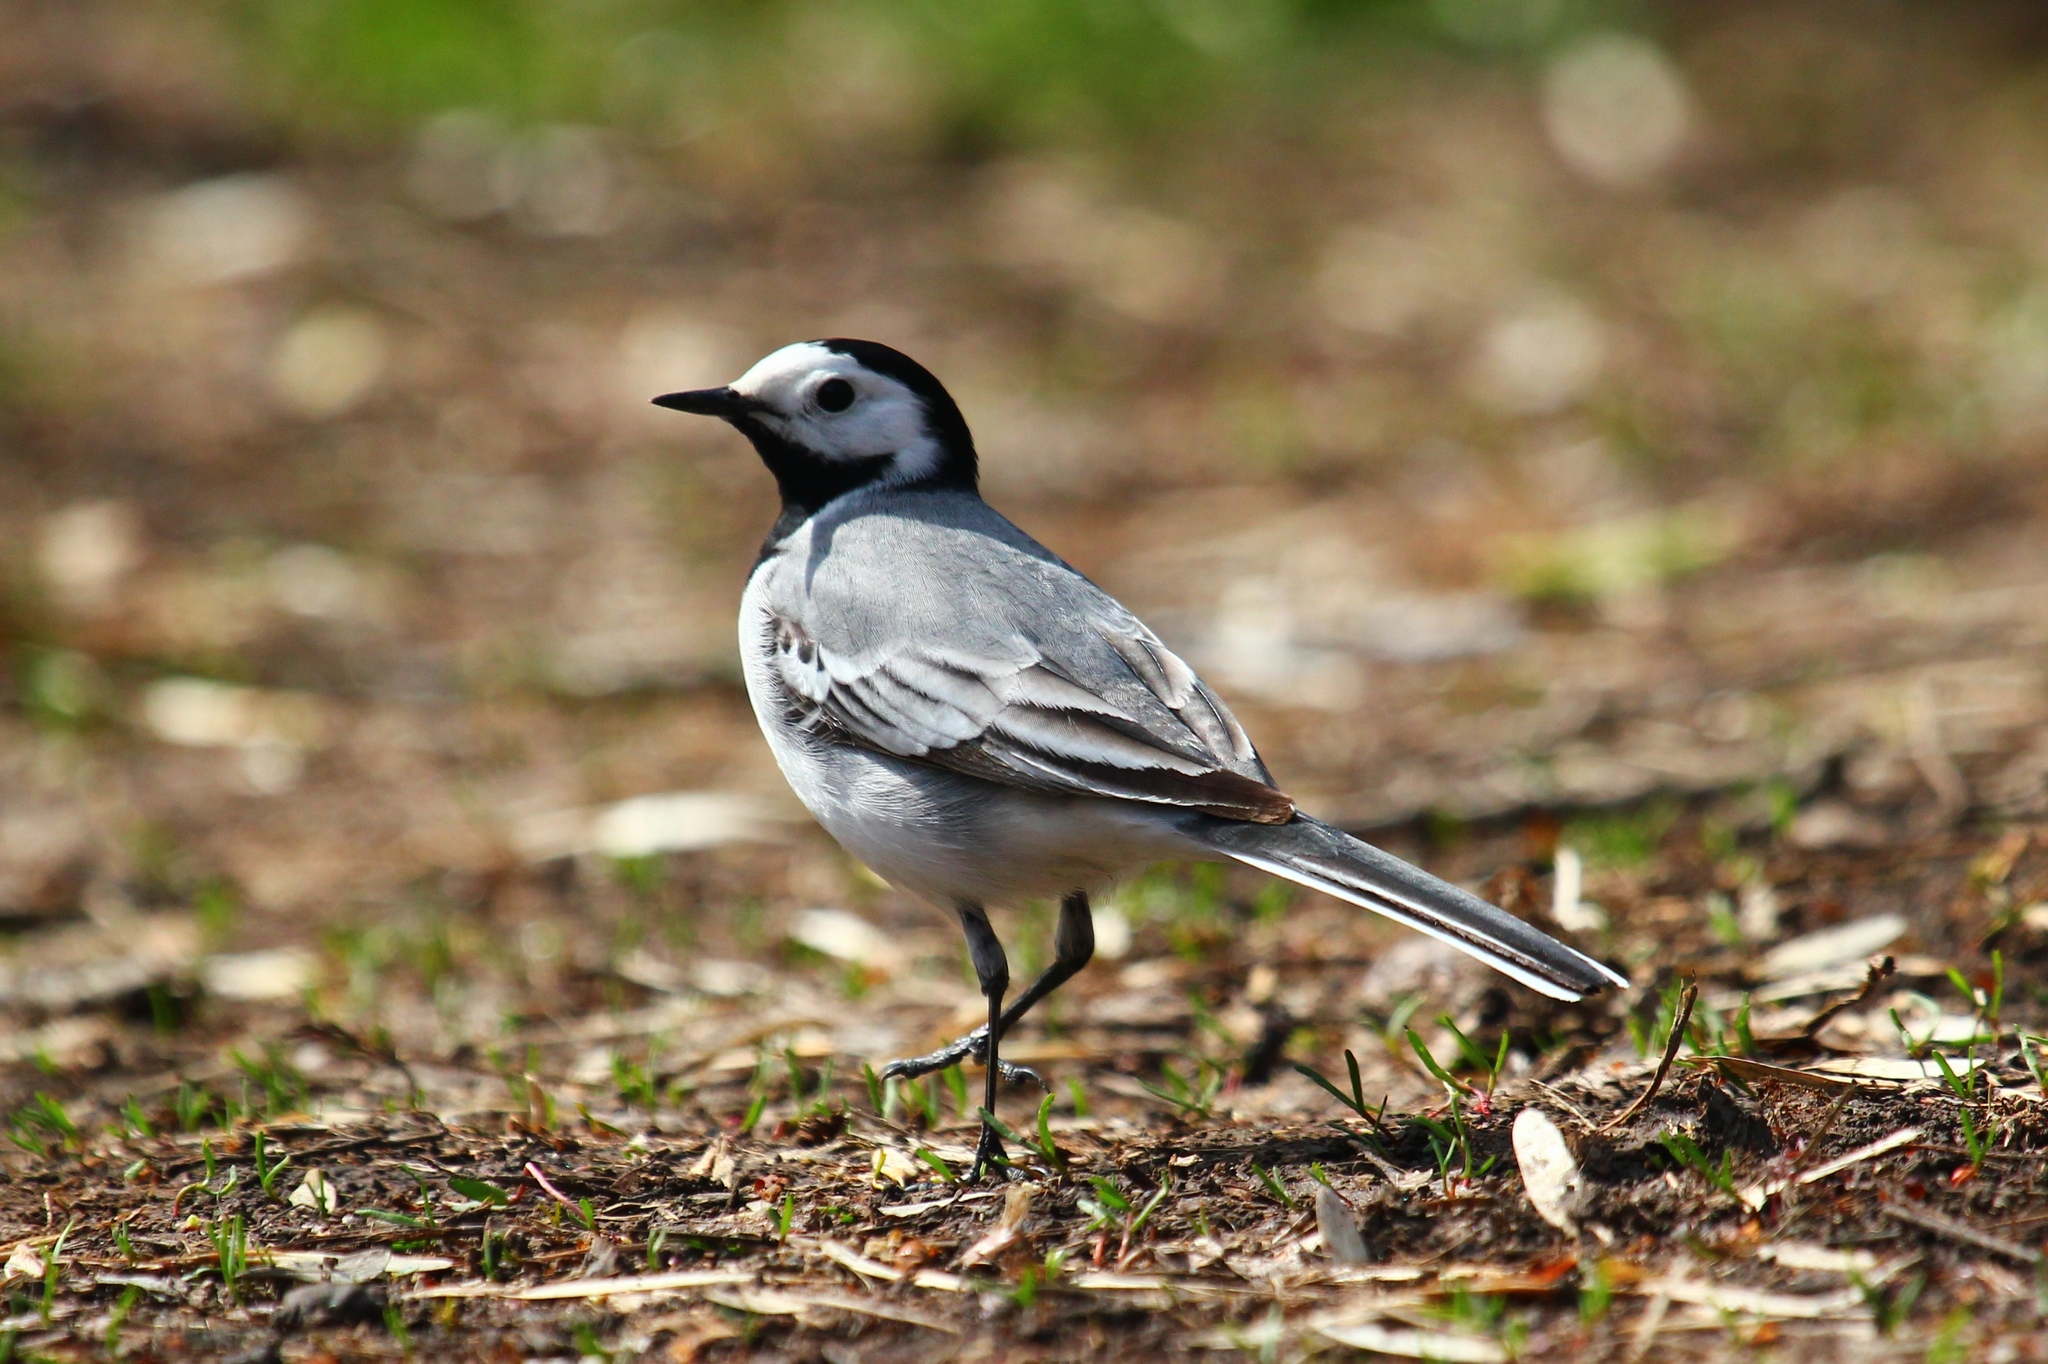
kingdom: Animalia
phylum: Chordata
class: Aves
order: Passeriformes
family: Motacillidae
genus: Motacilla
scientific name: Motacilla alba
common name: White wagtail
